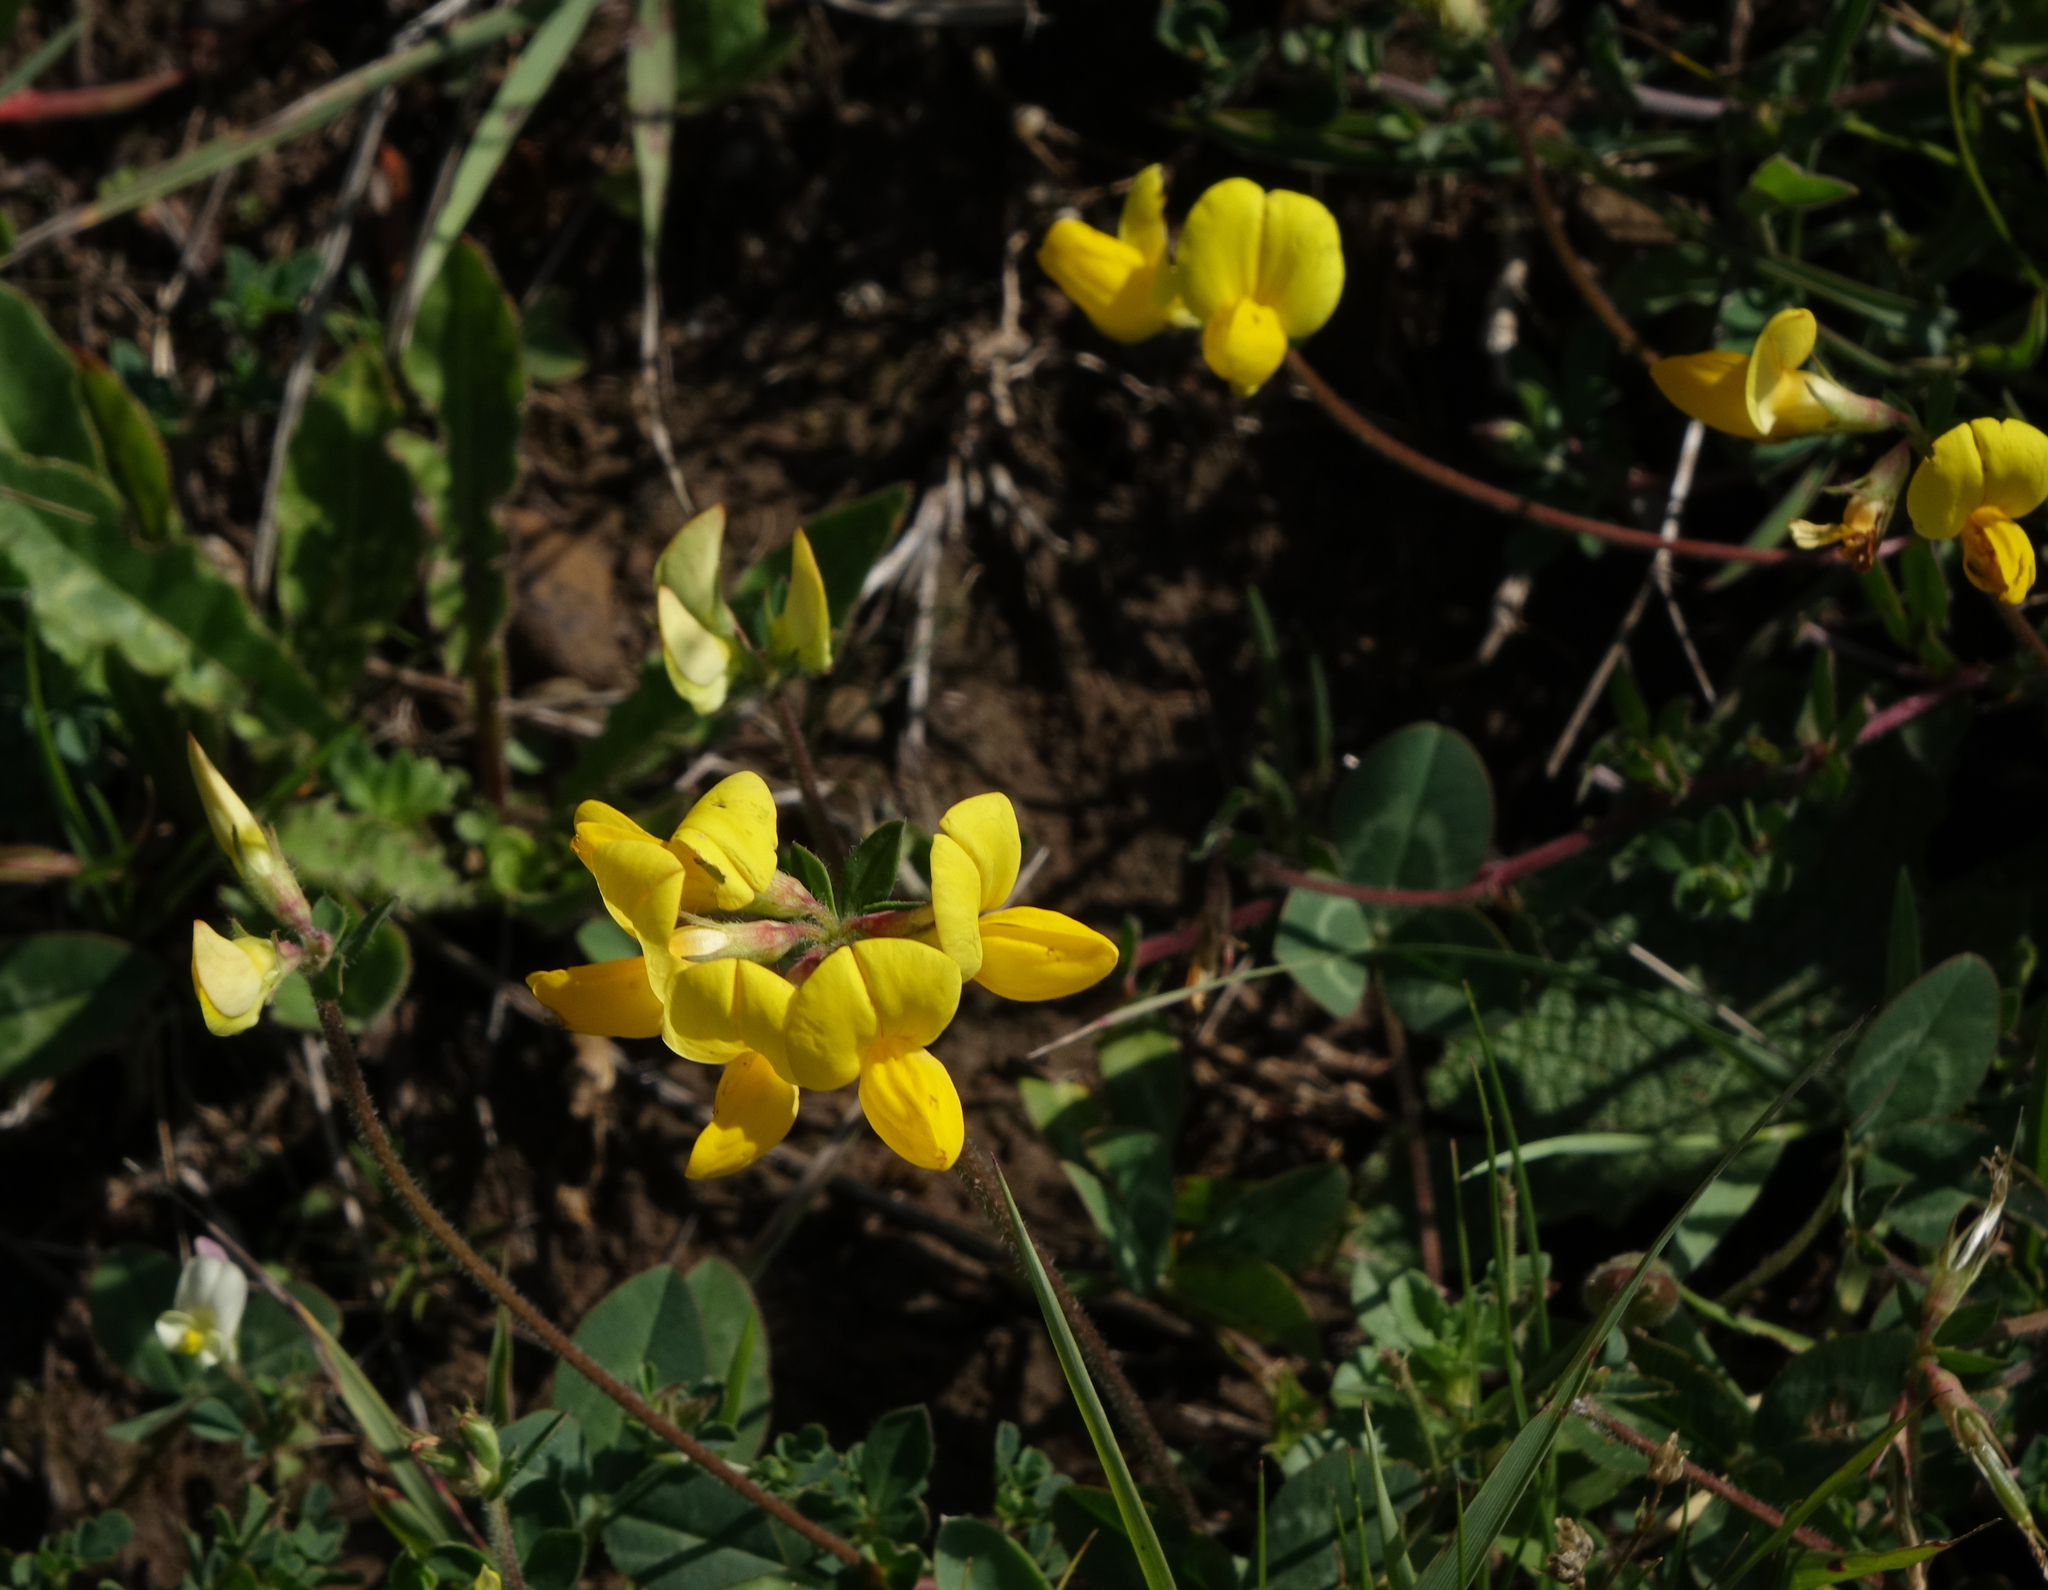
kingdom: Plantae
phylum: Tracheophyta
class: Magnoliopsida
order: Fabales
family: Fabaceae
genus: Lotus
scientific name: Lotus corniculatus
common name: Common bird's-foot-trefoil
